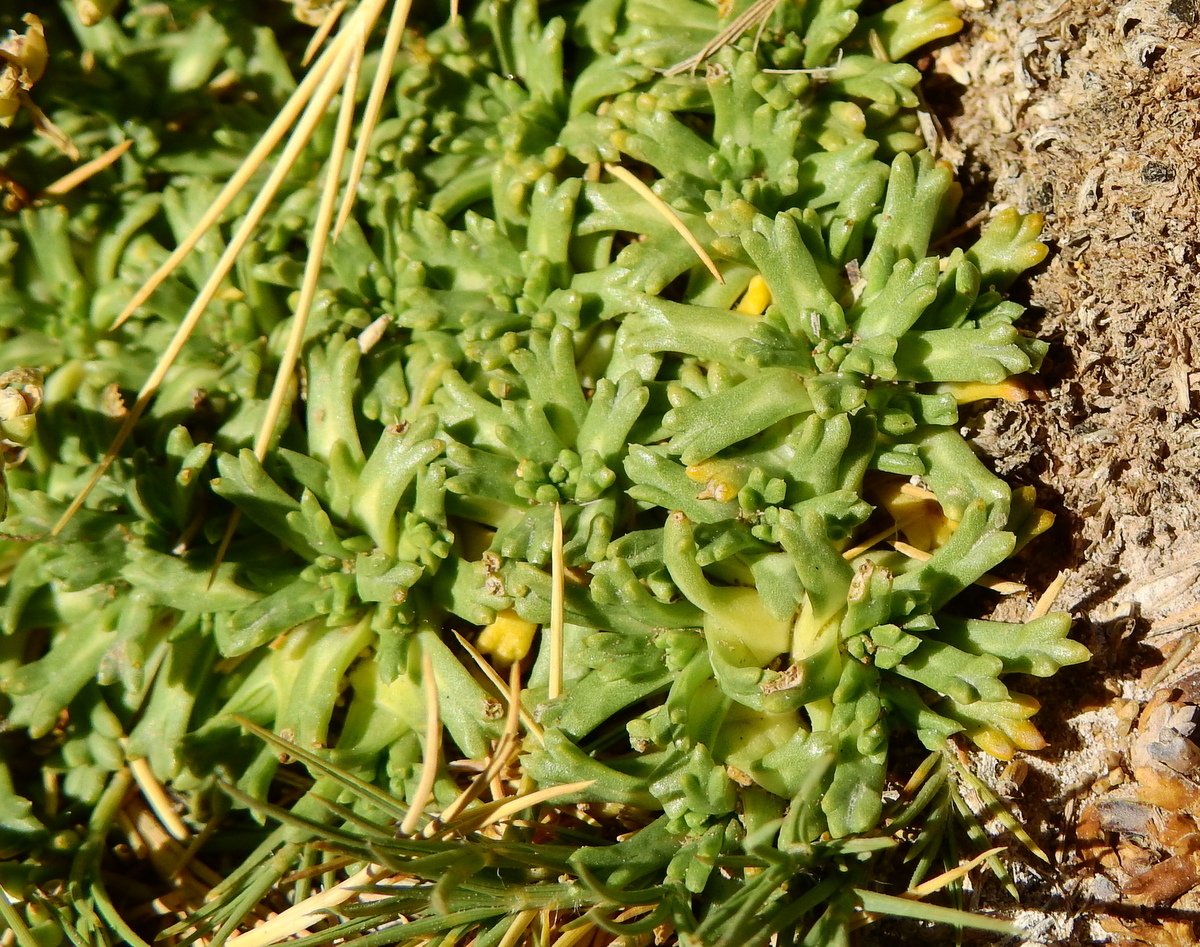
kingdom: Plantae
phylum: Tracheophyta
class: Magnoliopsida
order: Apiales
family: Apiaceae
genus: Azorella
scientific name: Azorella trifurcata
